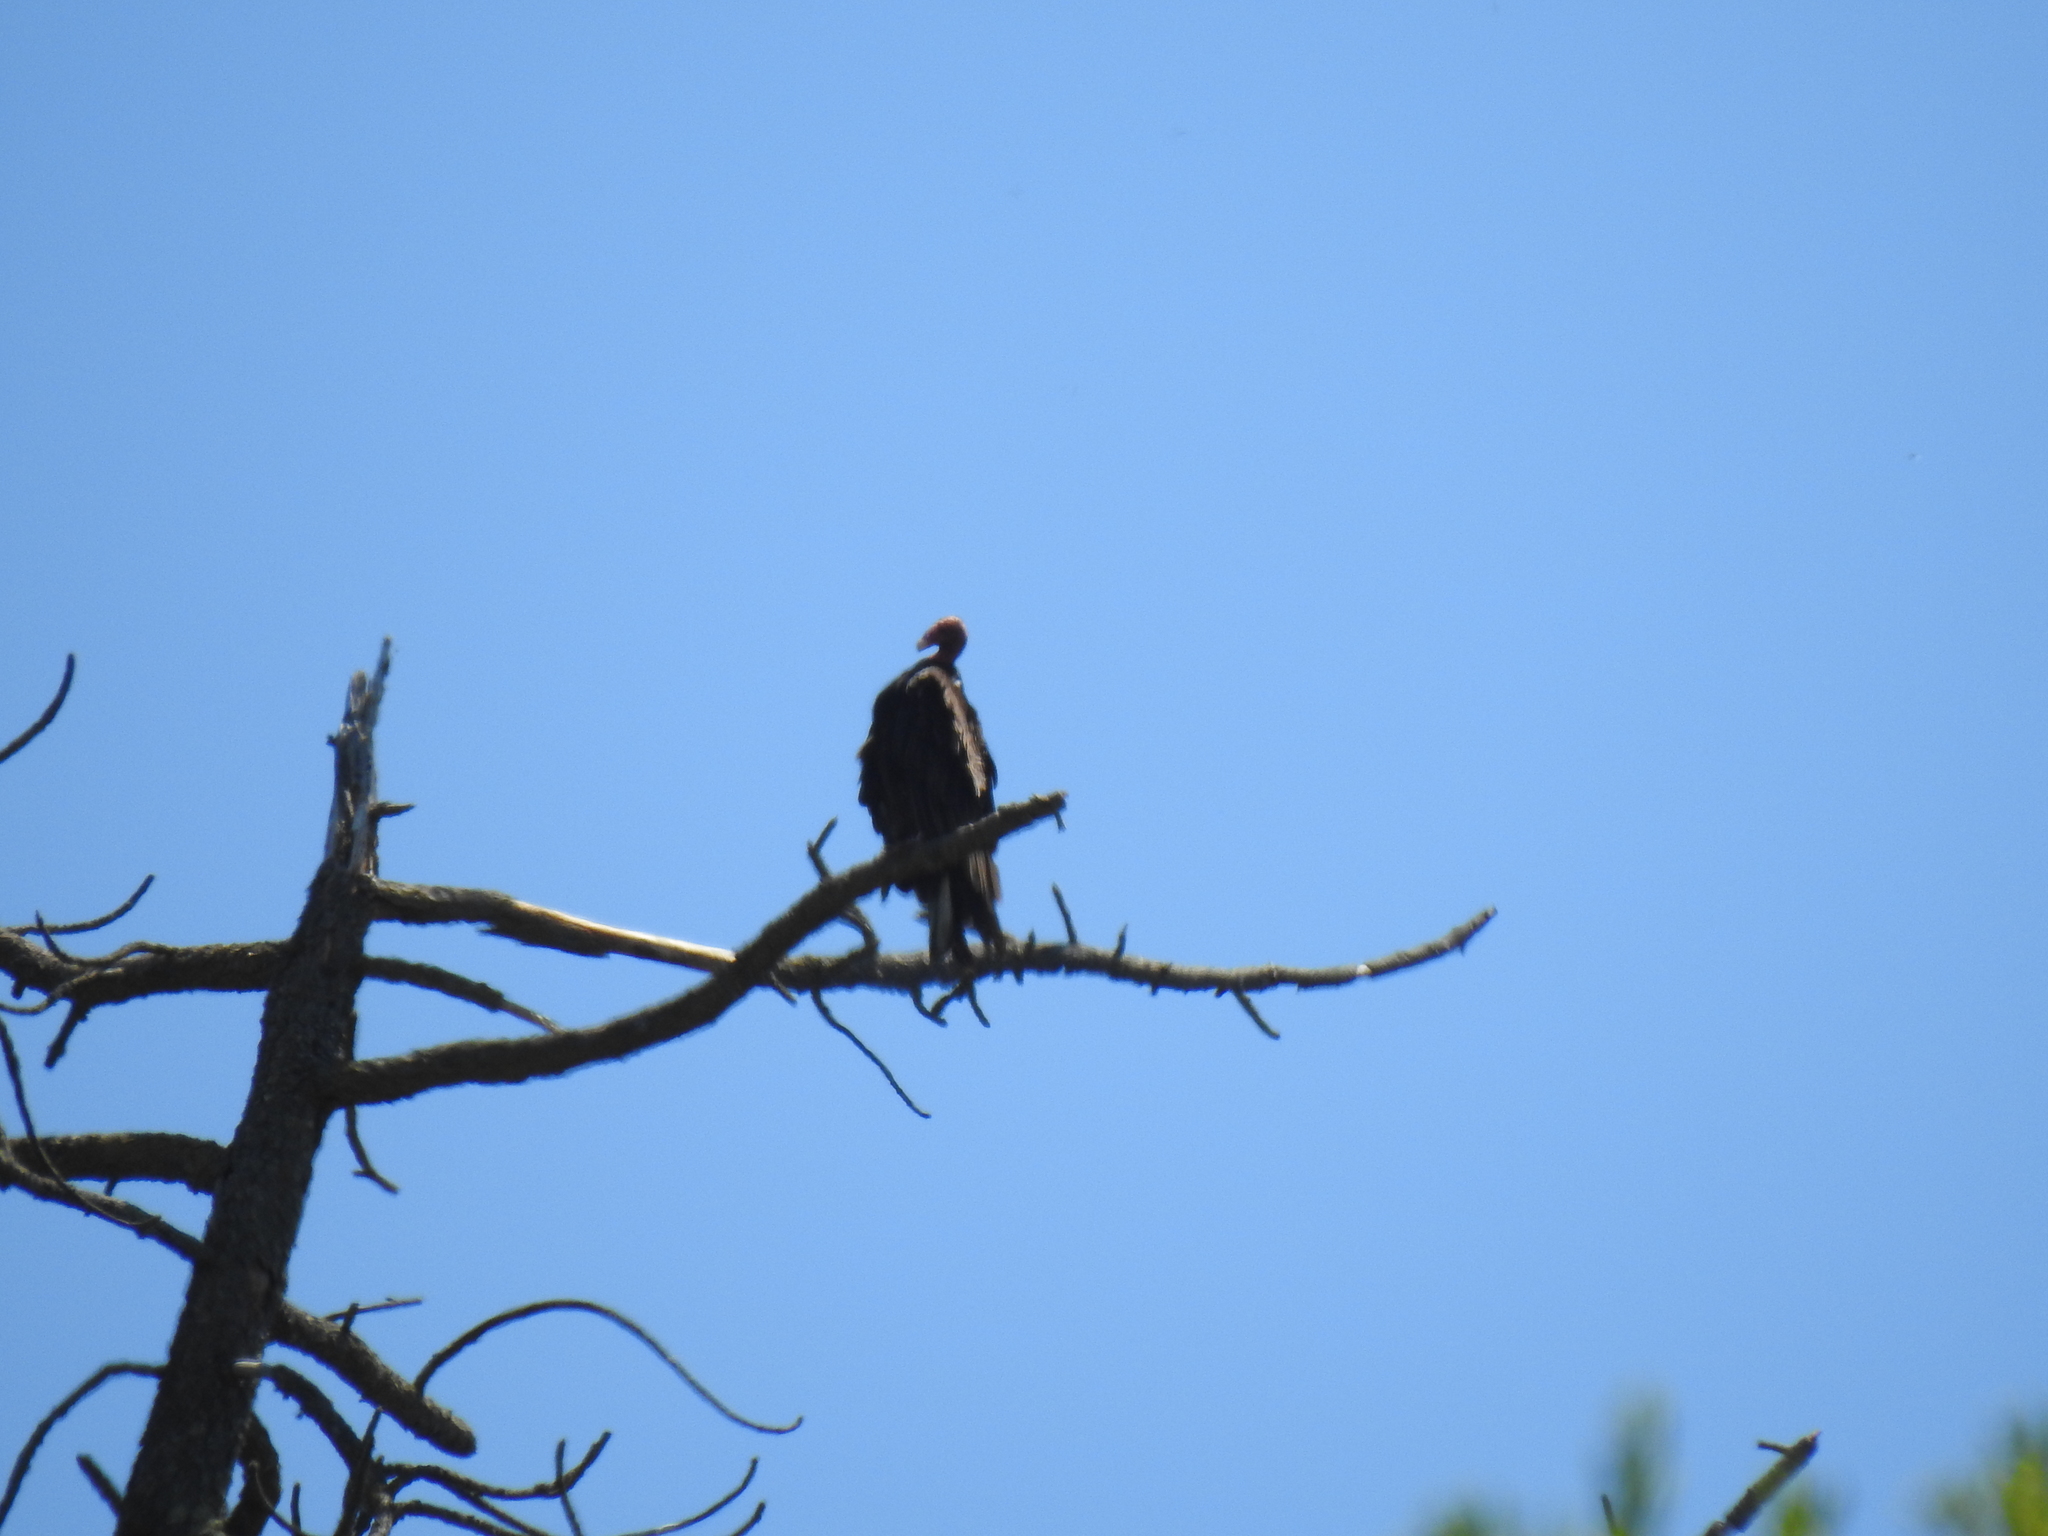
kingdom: Animalia
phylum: Chordata
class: Aves
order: Accipitriformes
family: Cathartidae
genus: Cathartes
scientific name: Cathartes aura
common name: Turkey vulture
